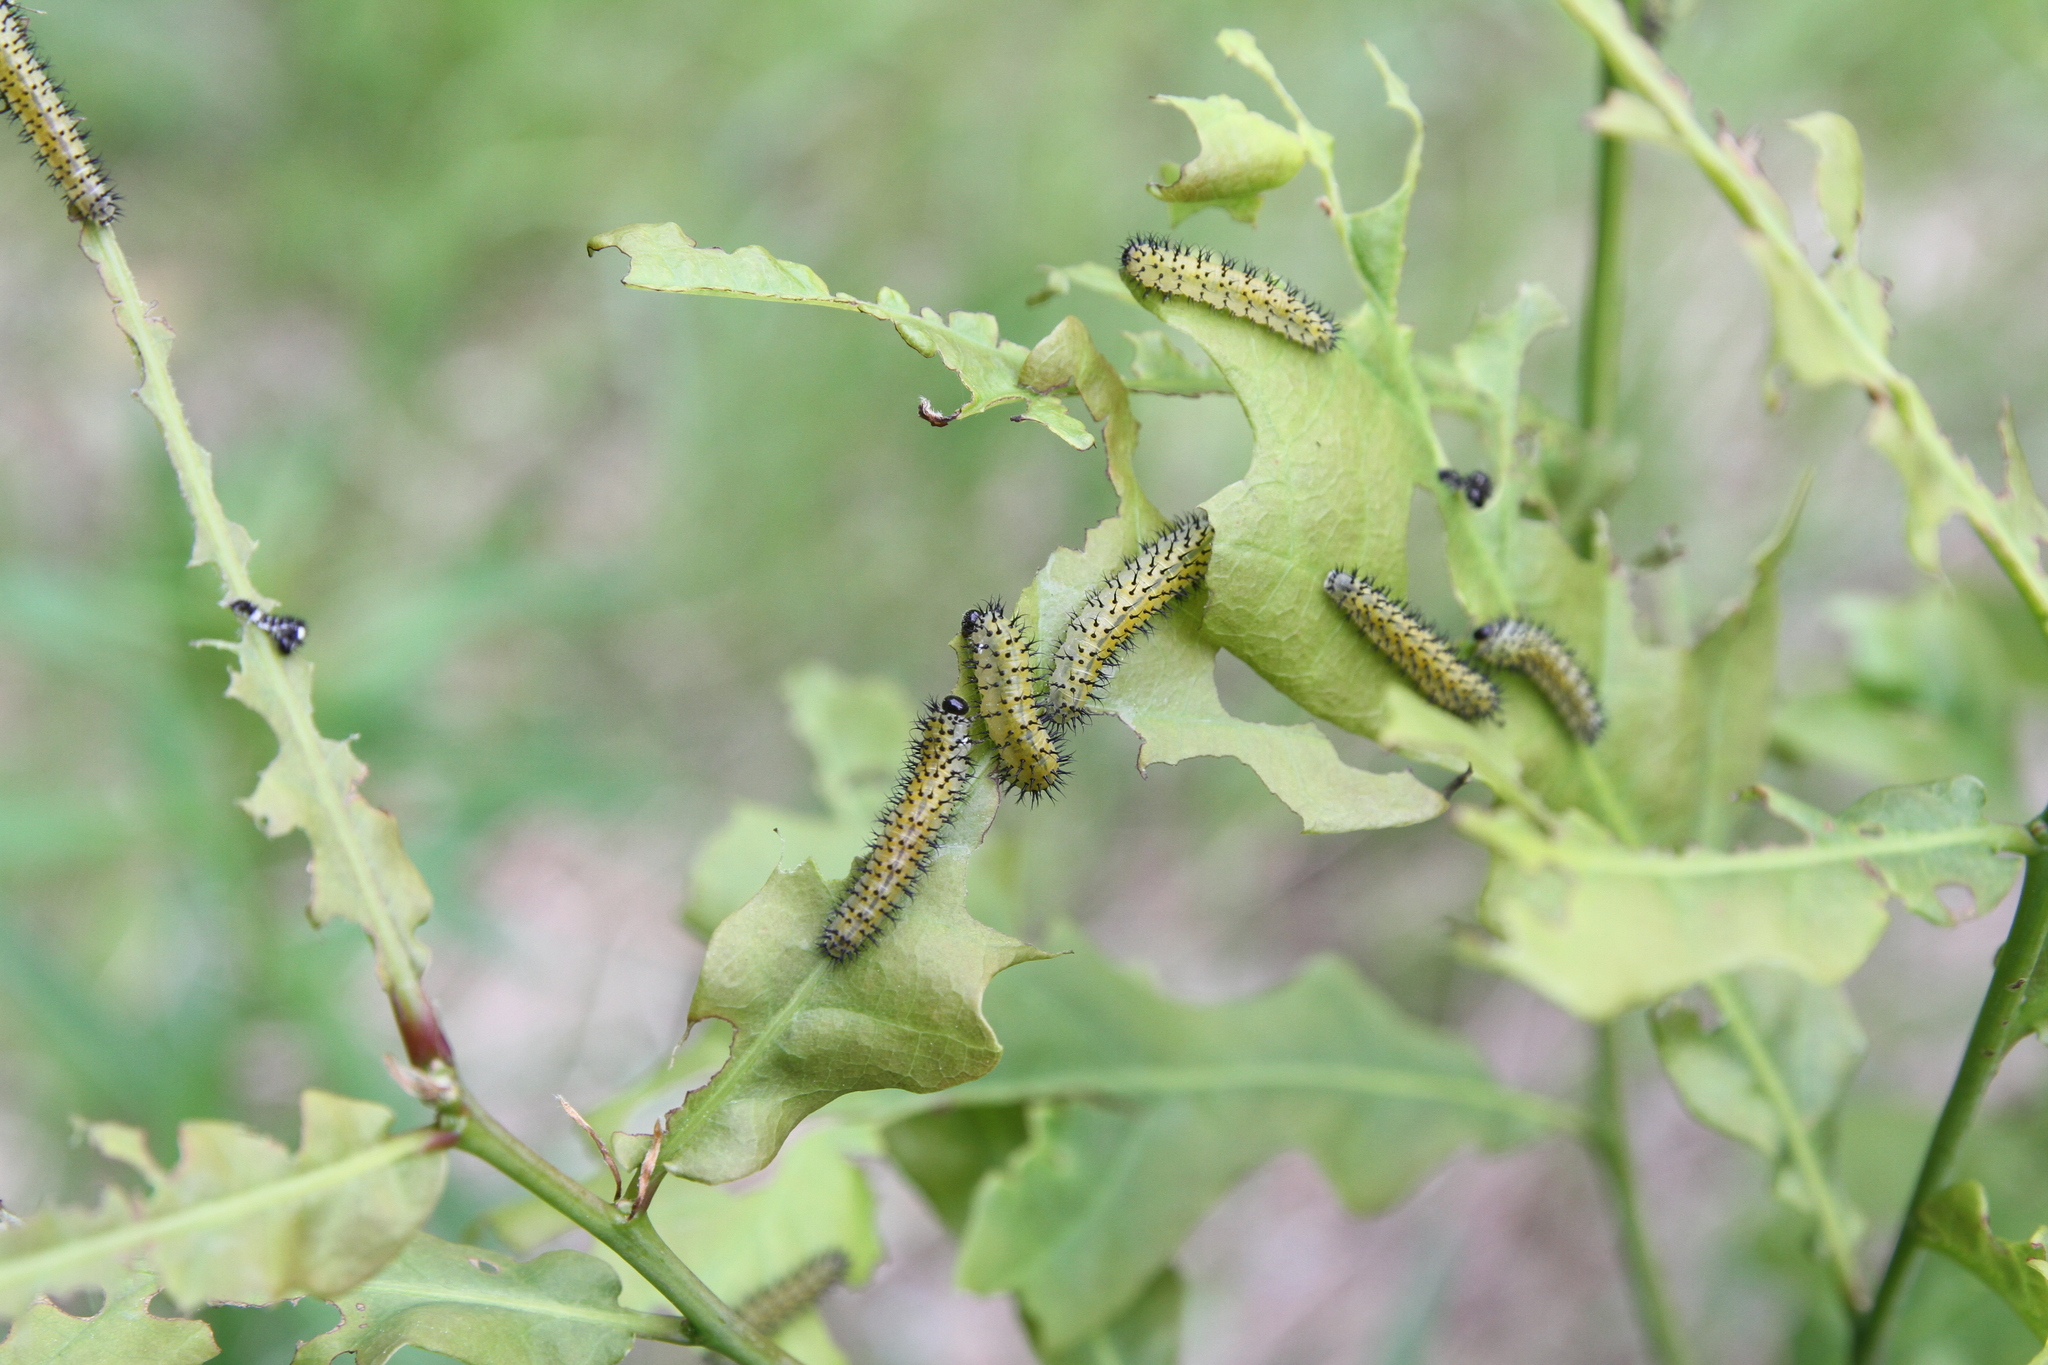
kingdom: Animalia
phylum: Arthropoda
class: Insecta
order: Hymenoptera
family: Tenthredinidae
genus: Periclista
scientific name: Periclista lineolata
